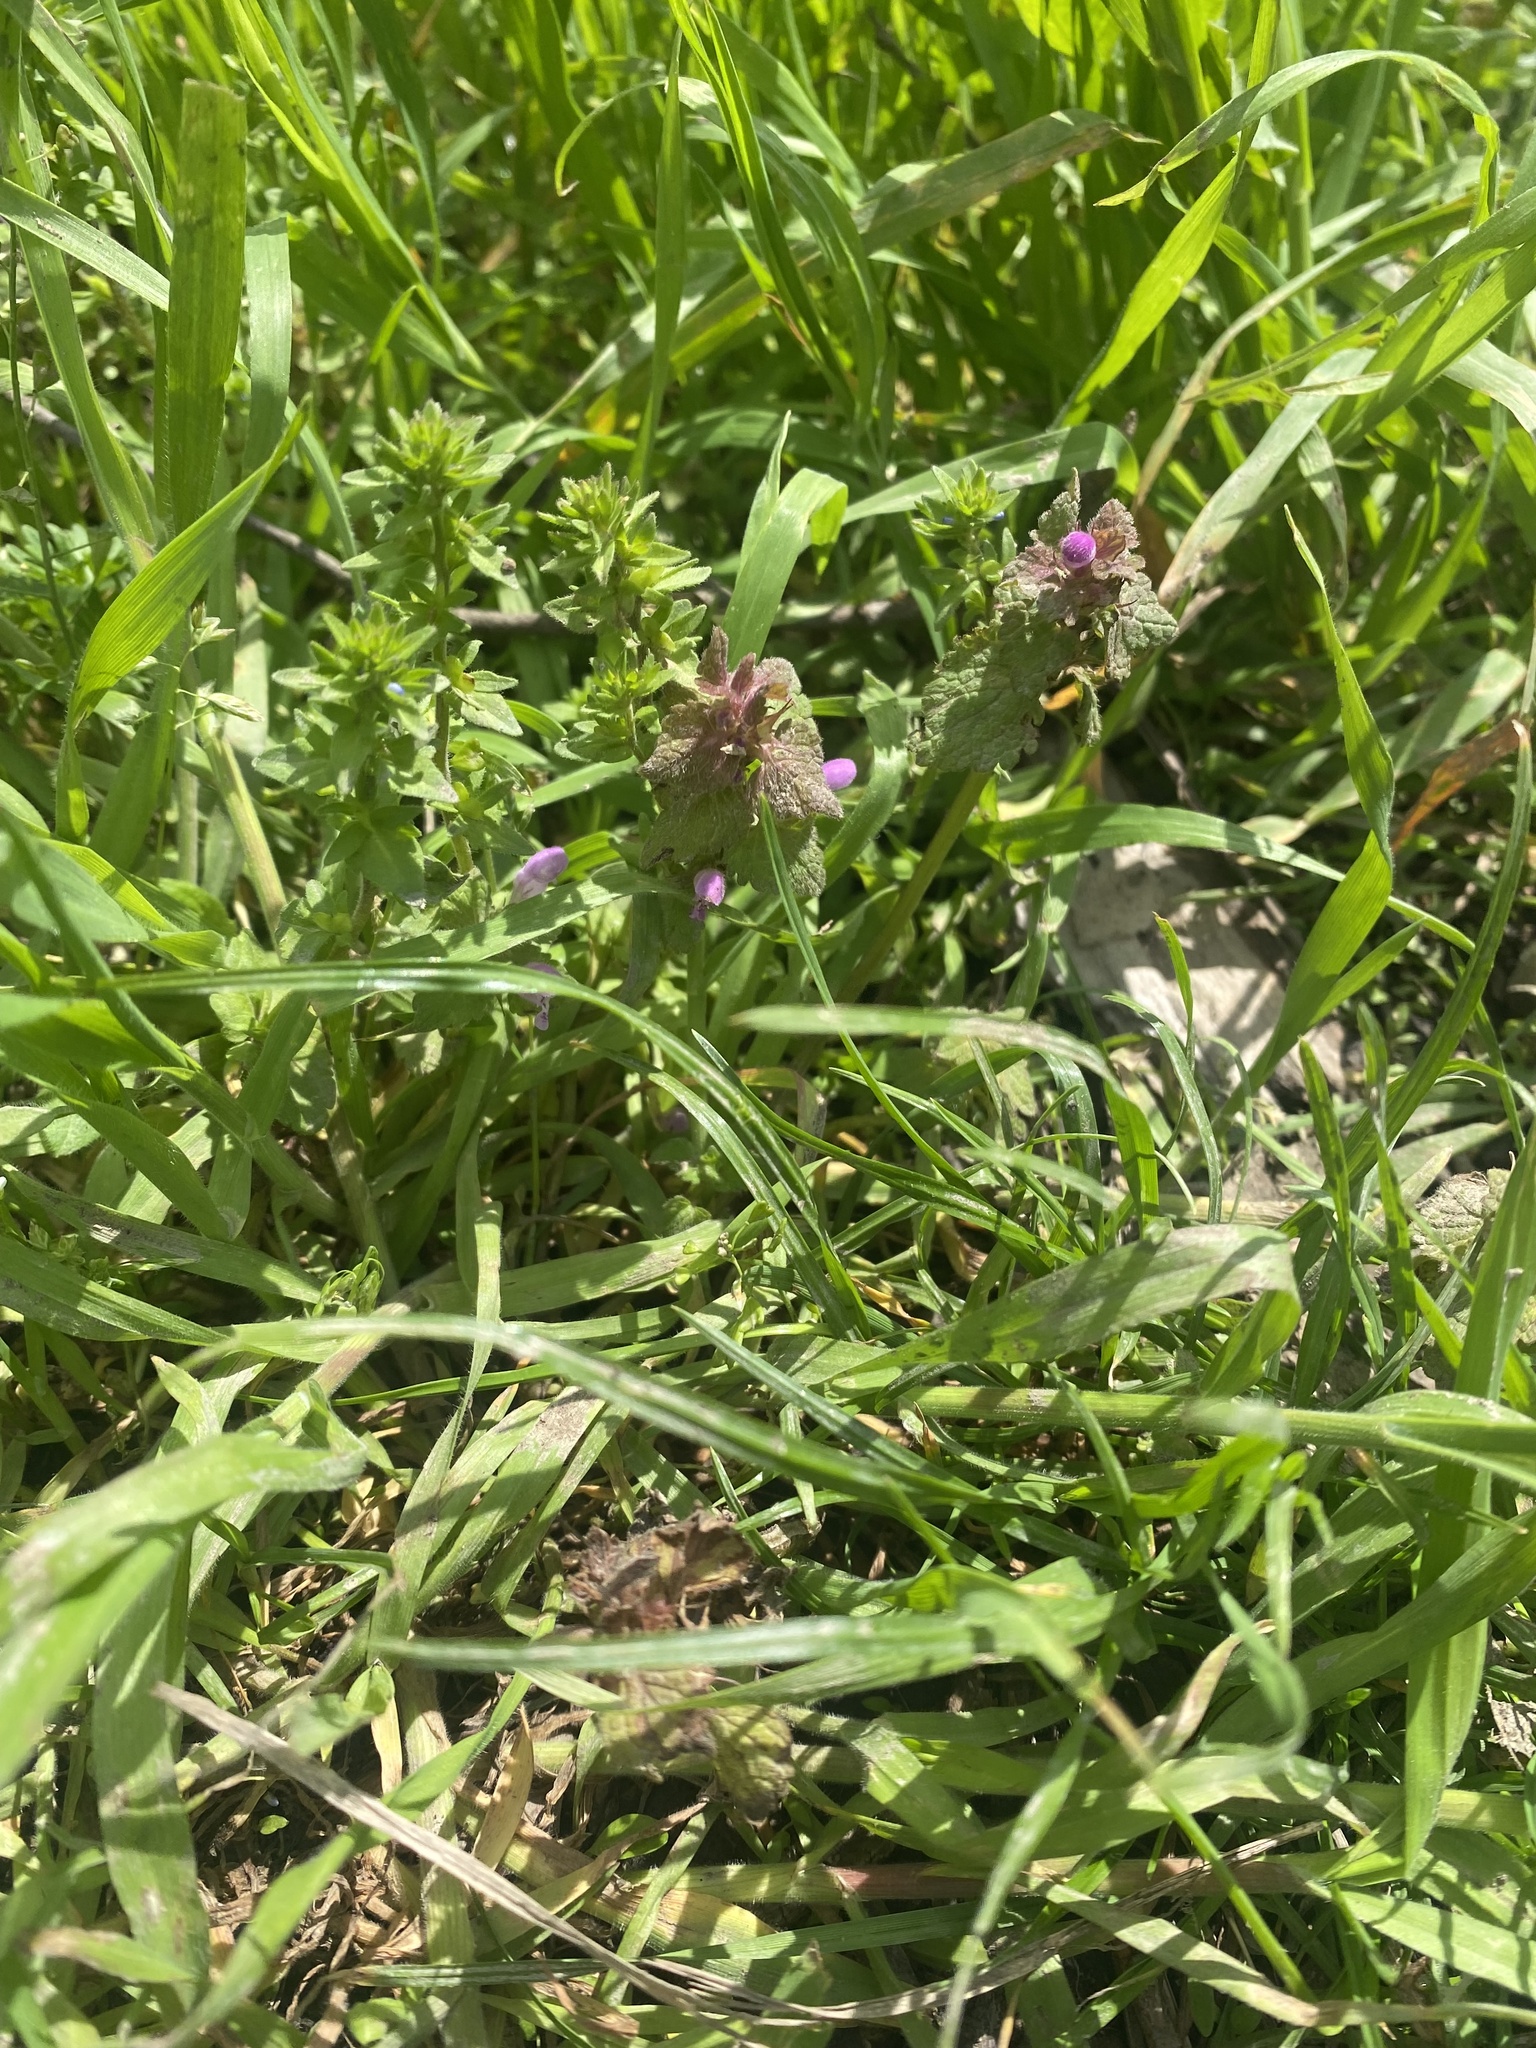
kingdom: Plantae
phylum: Tracheophyta
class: Magnoliopsida
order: Lamiales
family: Lamiaceae
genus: Lamium
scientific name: Lamium purpureum
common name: Red dead-nettle
